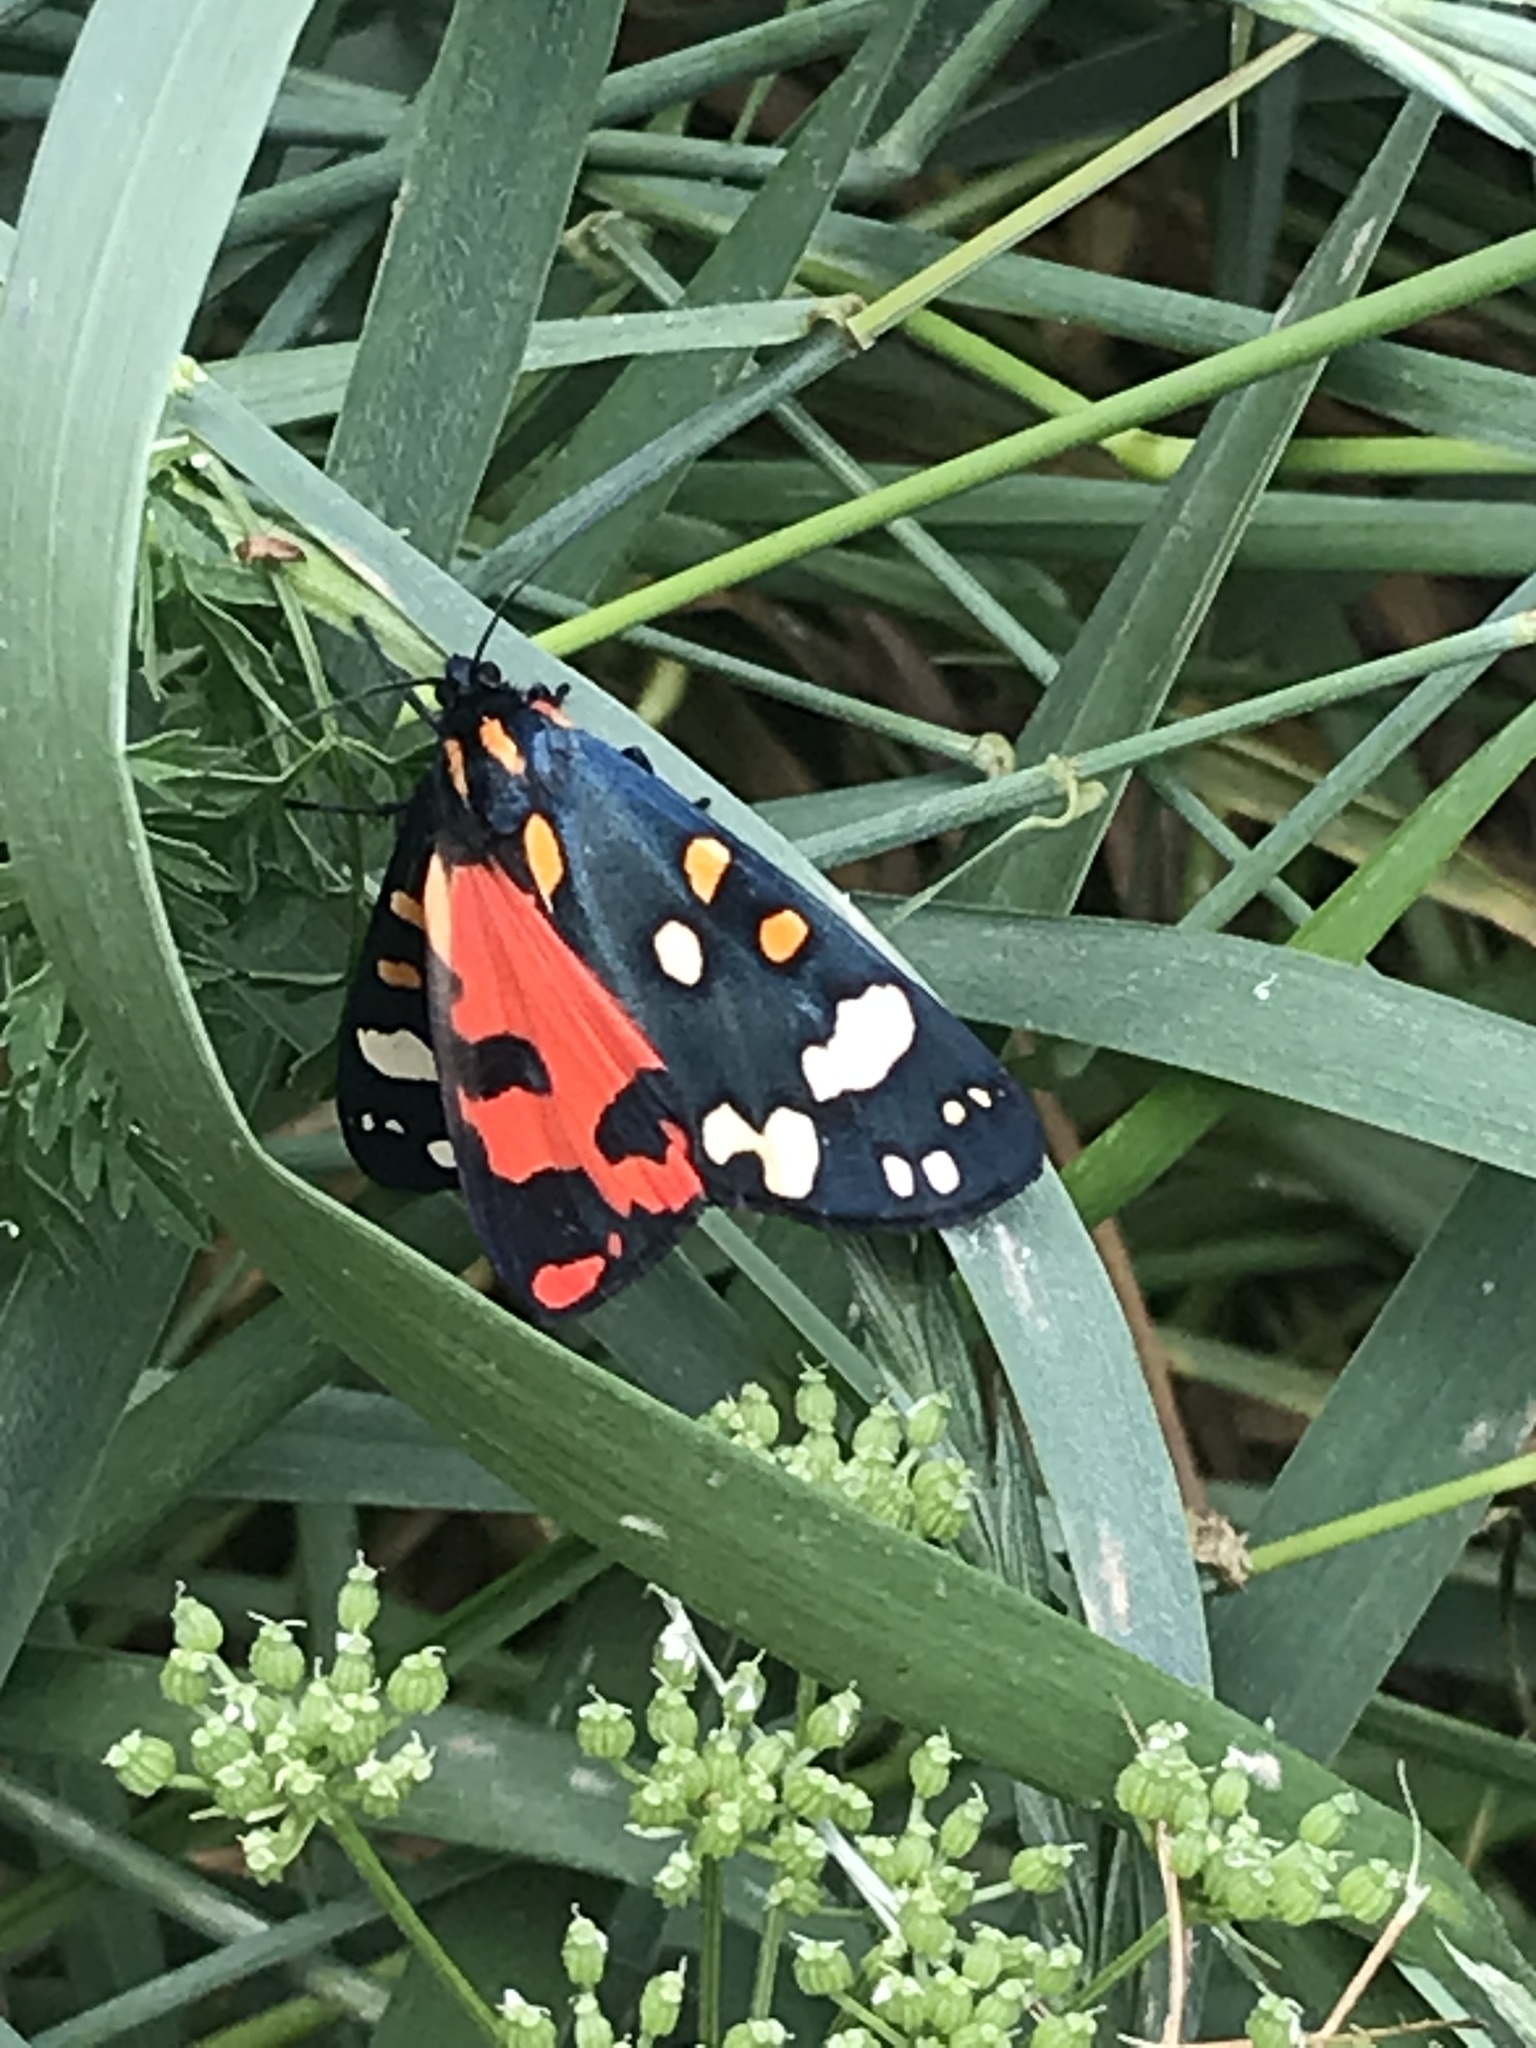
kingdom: Animalia
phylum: Arthropoda
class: Insecta
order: Lepidoptera
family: Erebidae
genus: Callimorpha
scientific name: Callimorpha dominula
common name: Scarlet tiger
